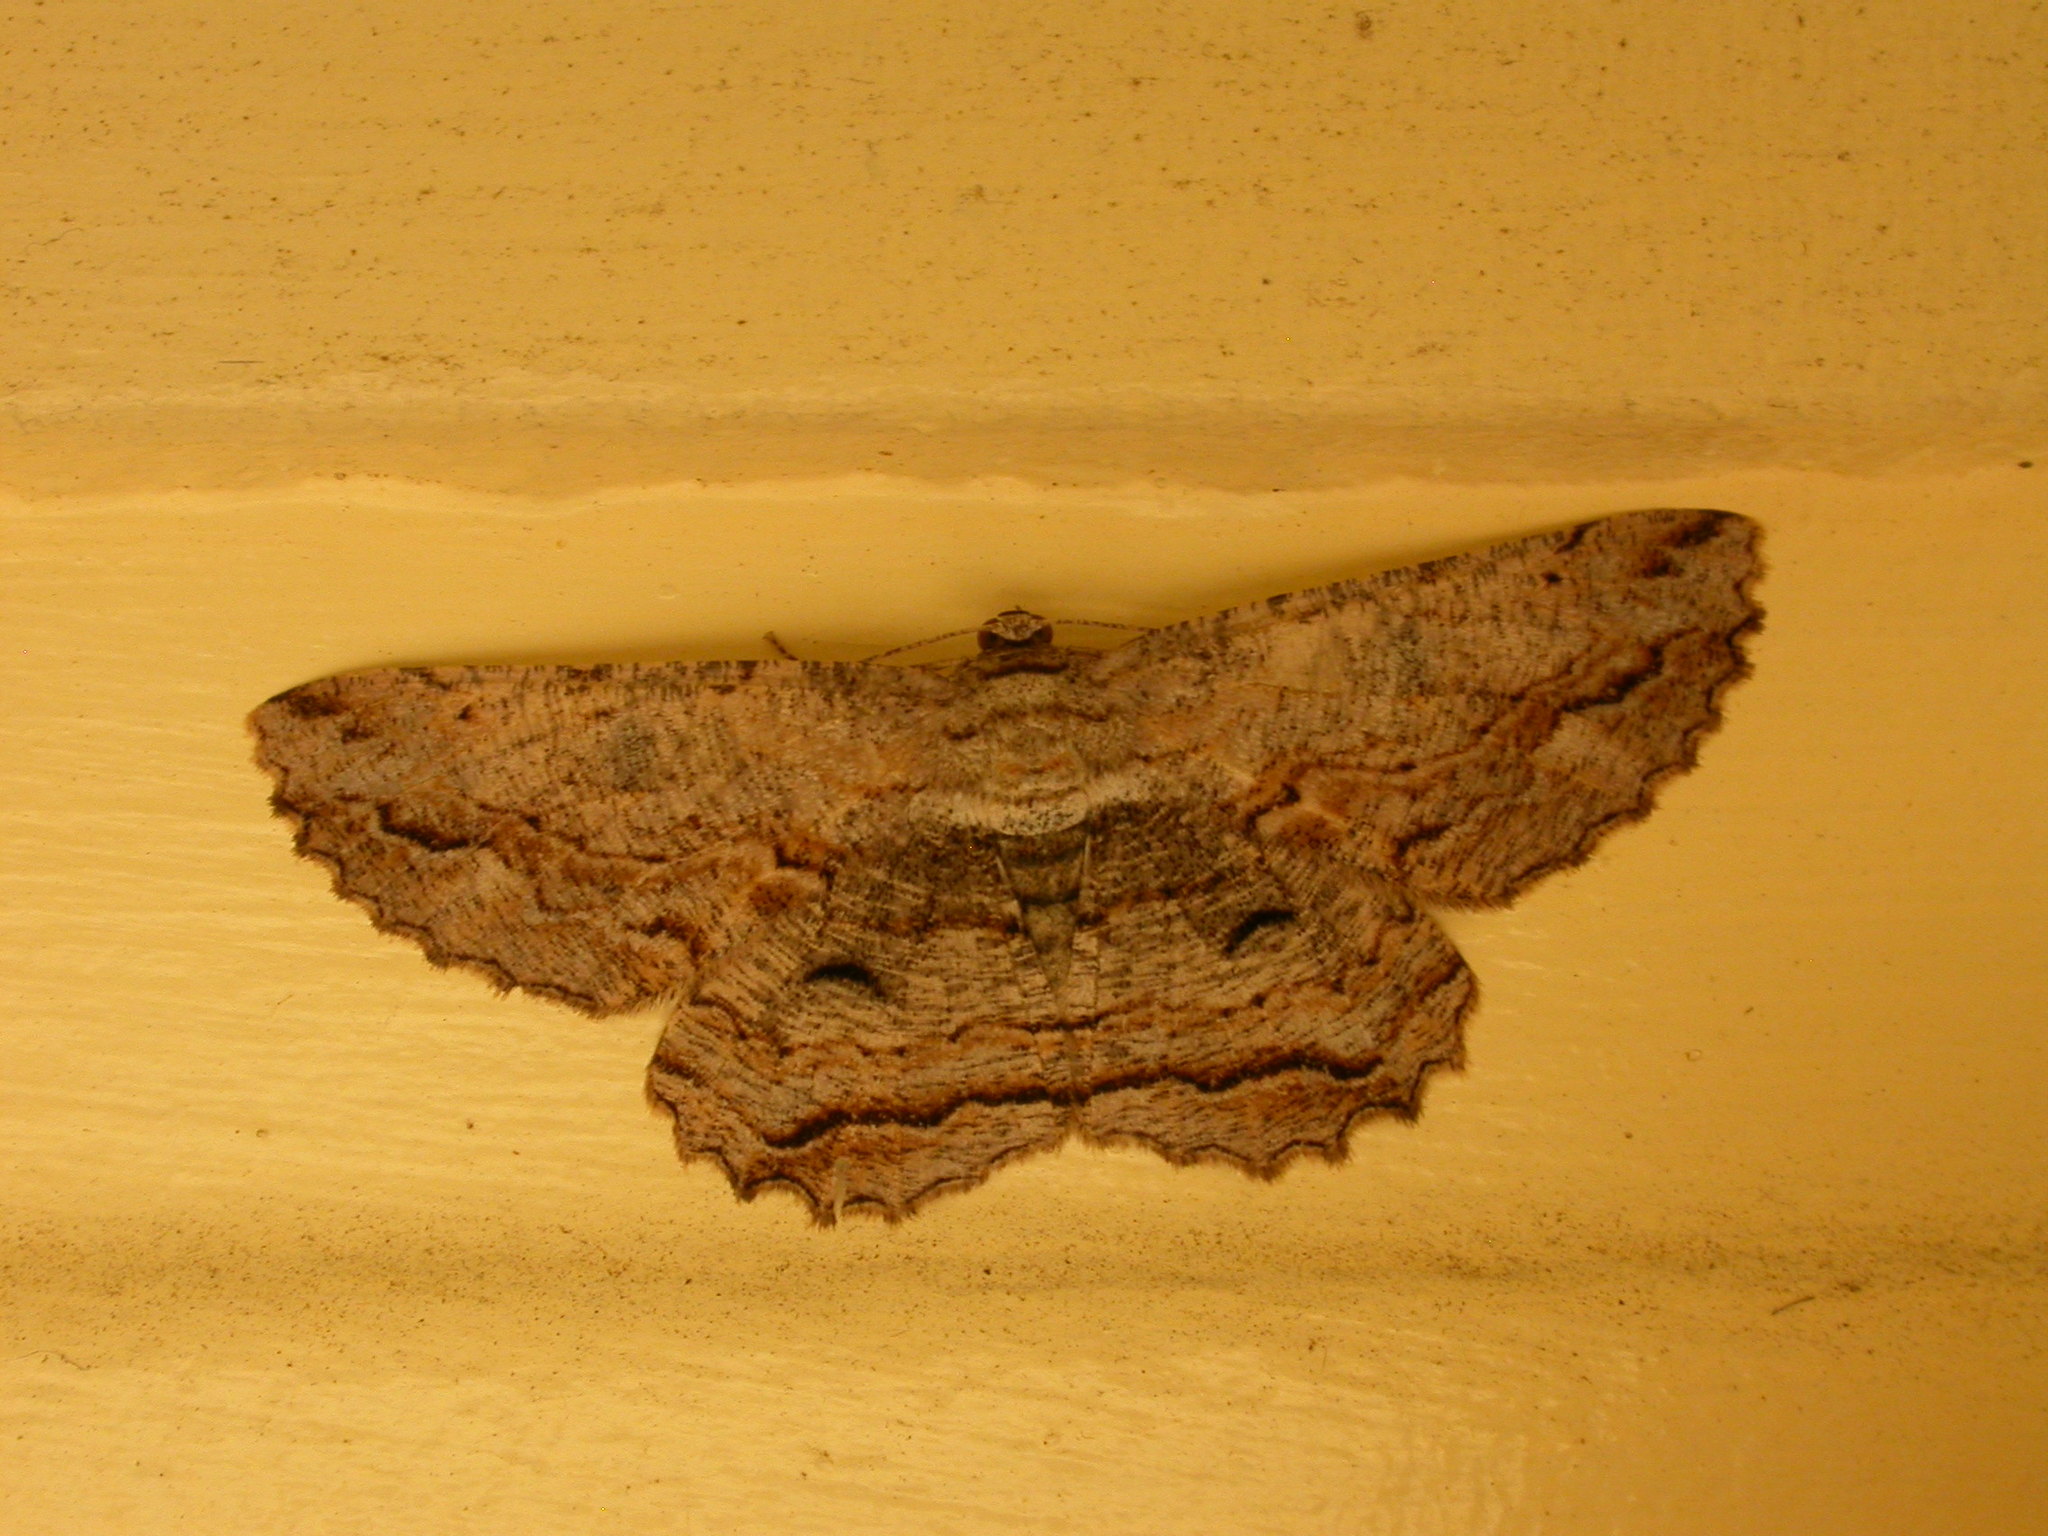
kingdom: Animalia
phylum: Arthropoda
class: Insecta
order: Lepidoptera
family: Geometridae
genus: Scioglyptis
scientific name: Scioglyptis lyciaria
